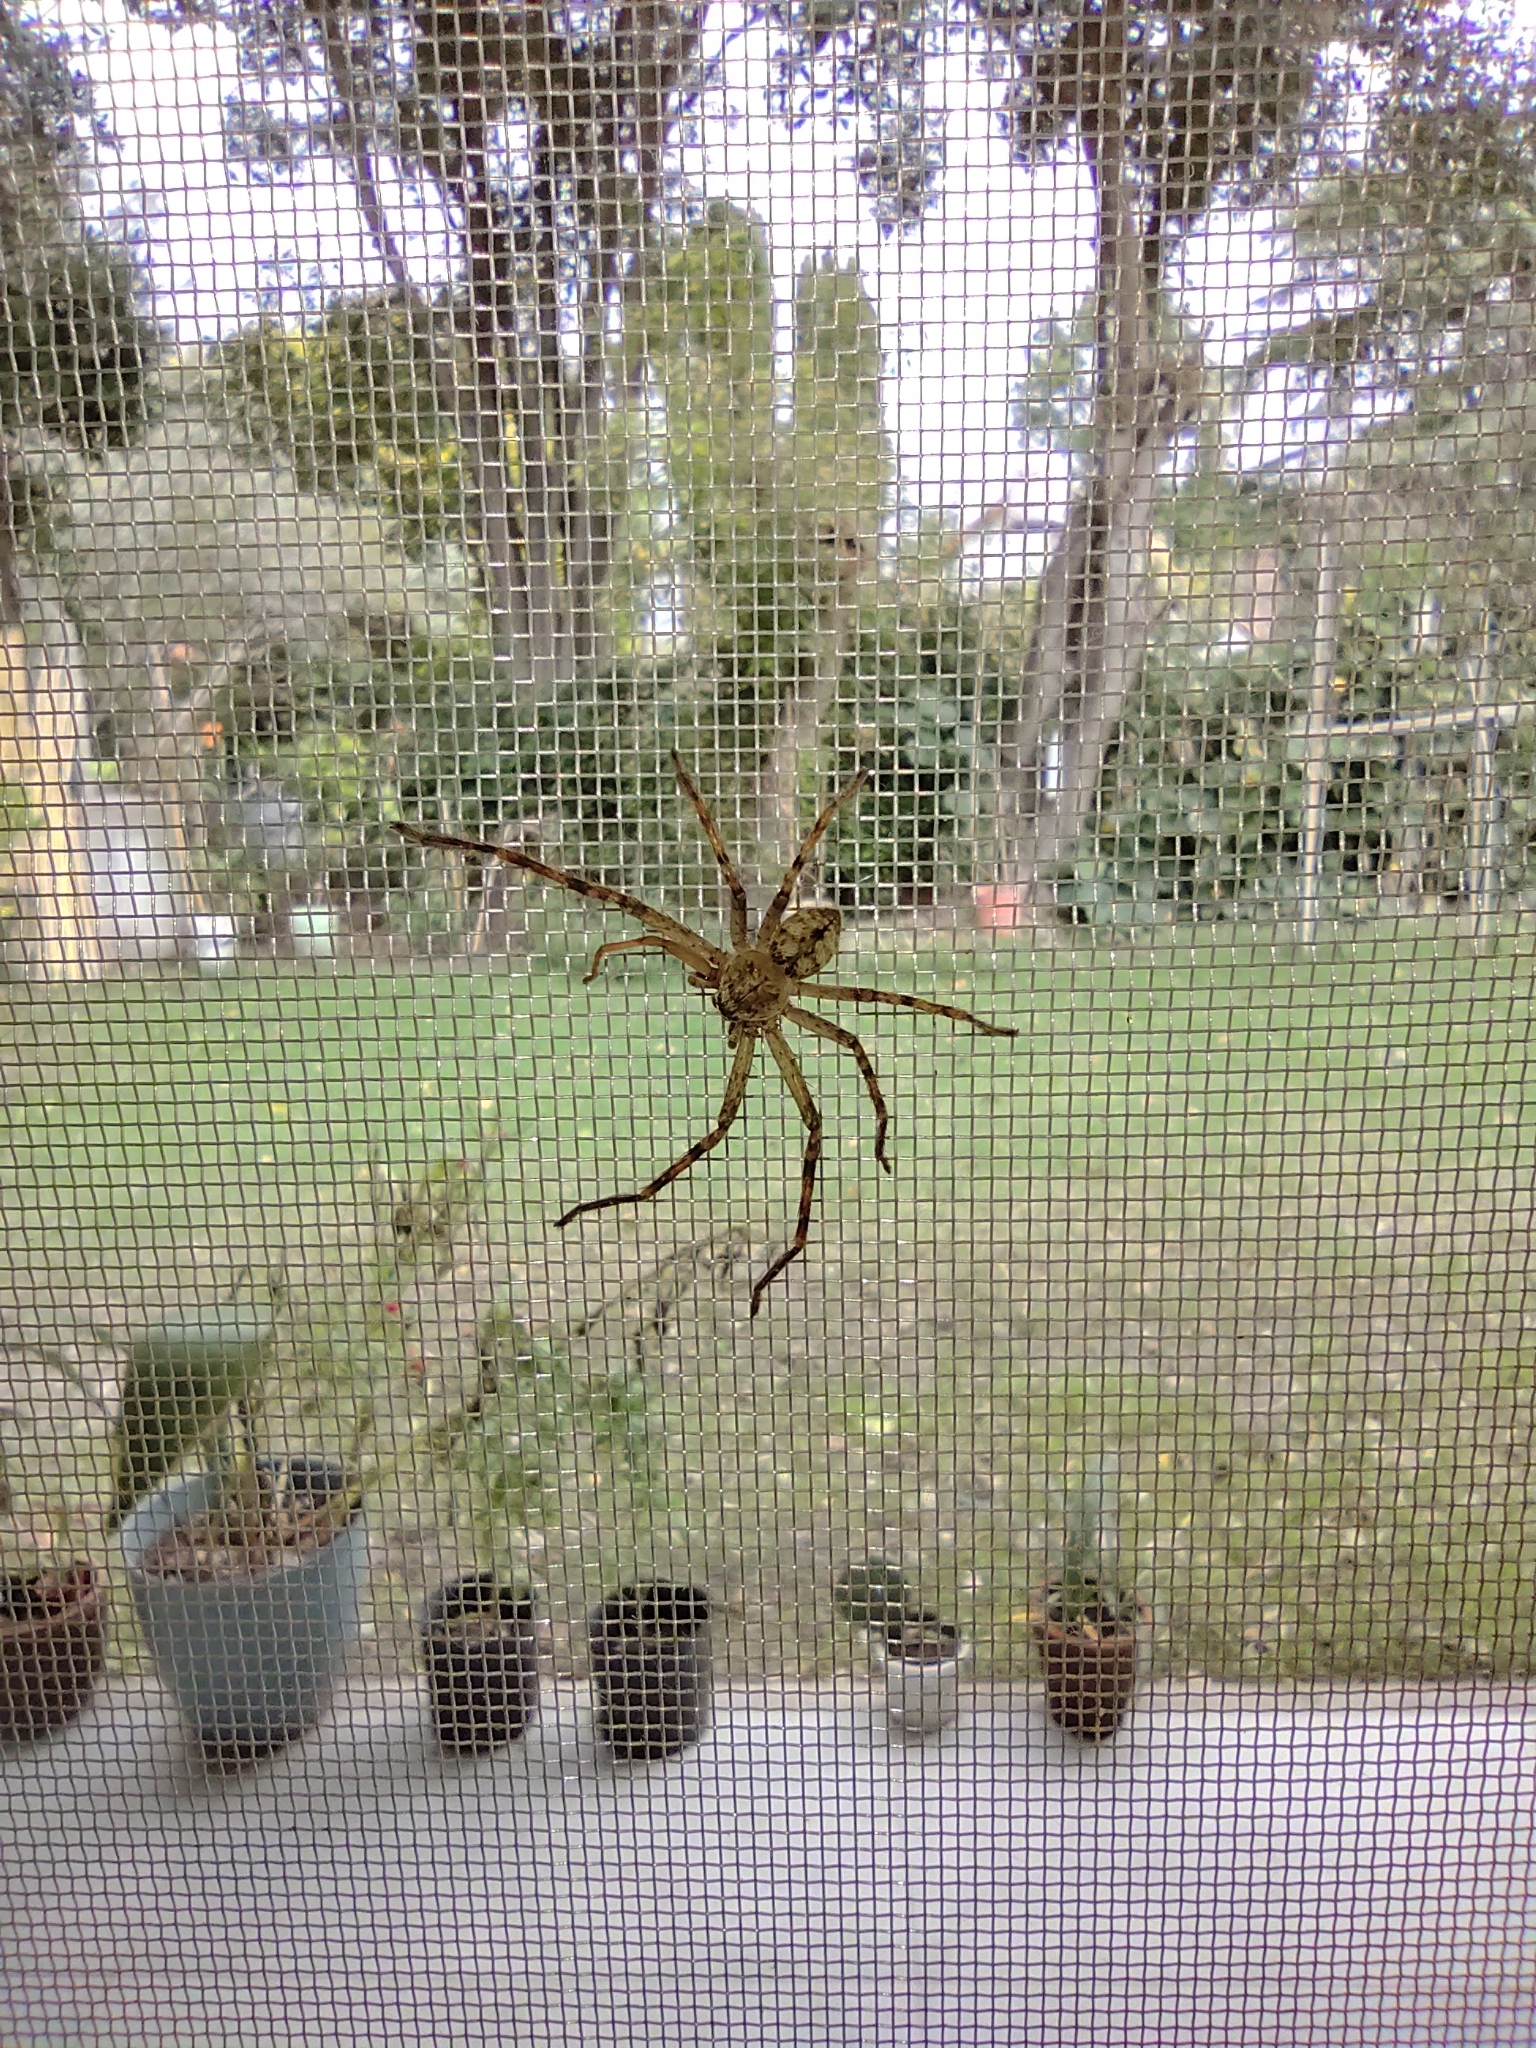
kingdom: Animalia
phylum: Arthropoda
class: Arachnida
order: Araneae
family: Sparassidae
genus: Polybetes
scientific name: Polybetes rapidus
